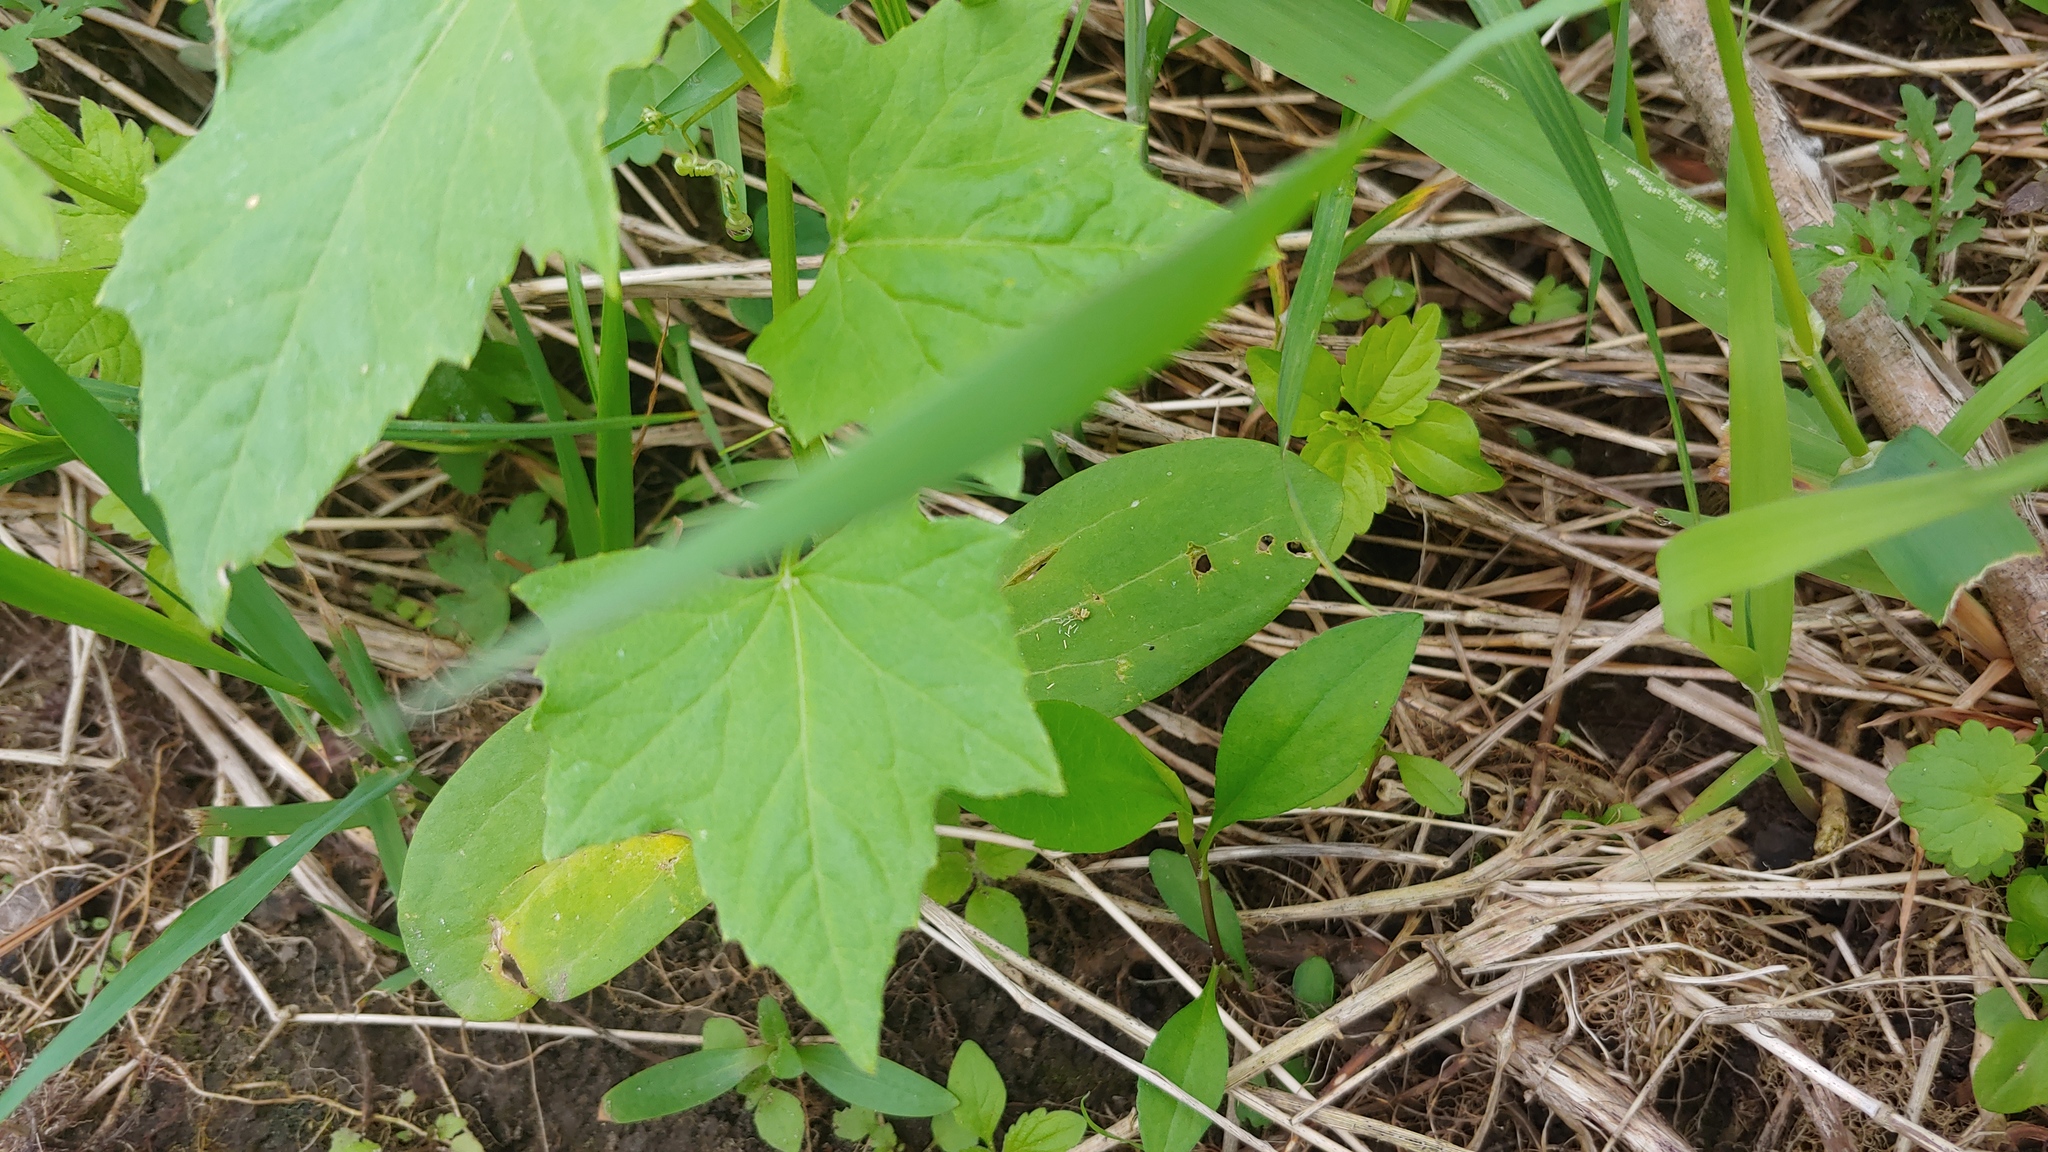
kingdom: Plantae
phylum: Tracheophyta
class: Magnoliopsida
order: Cucurbitales
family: Cucurbitaceae
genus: Echinocystis
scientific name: Echinocystis lobata
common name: Wild cucumber
